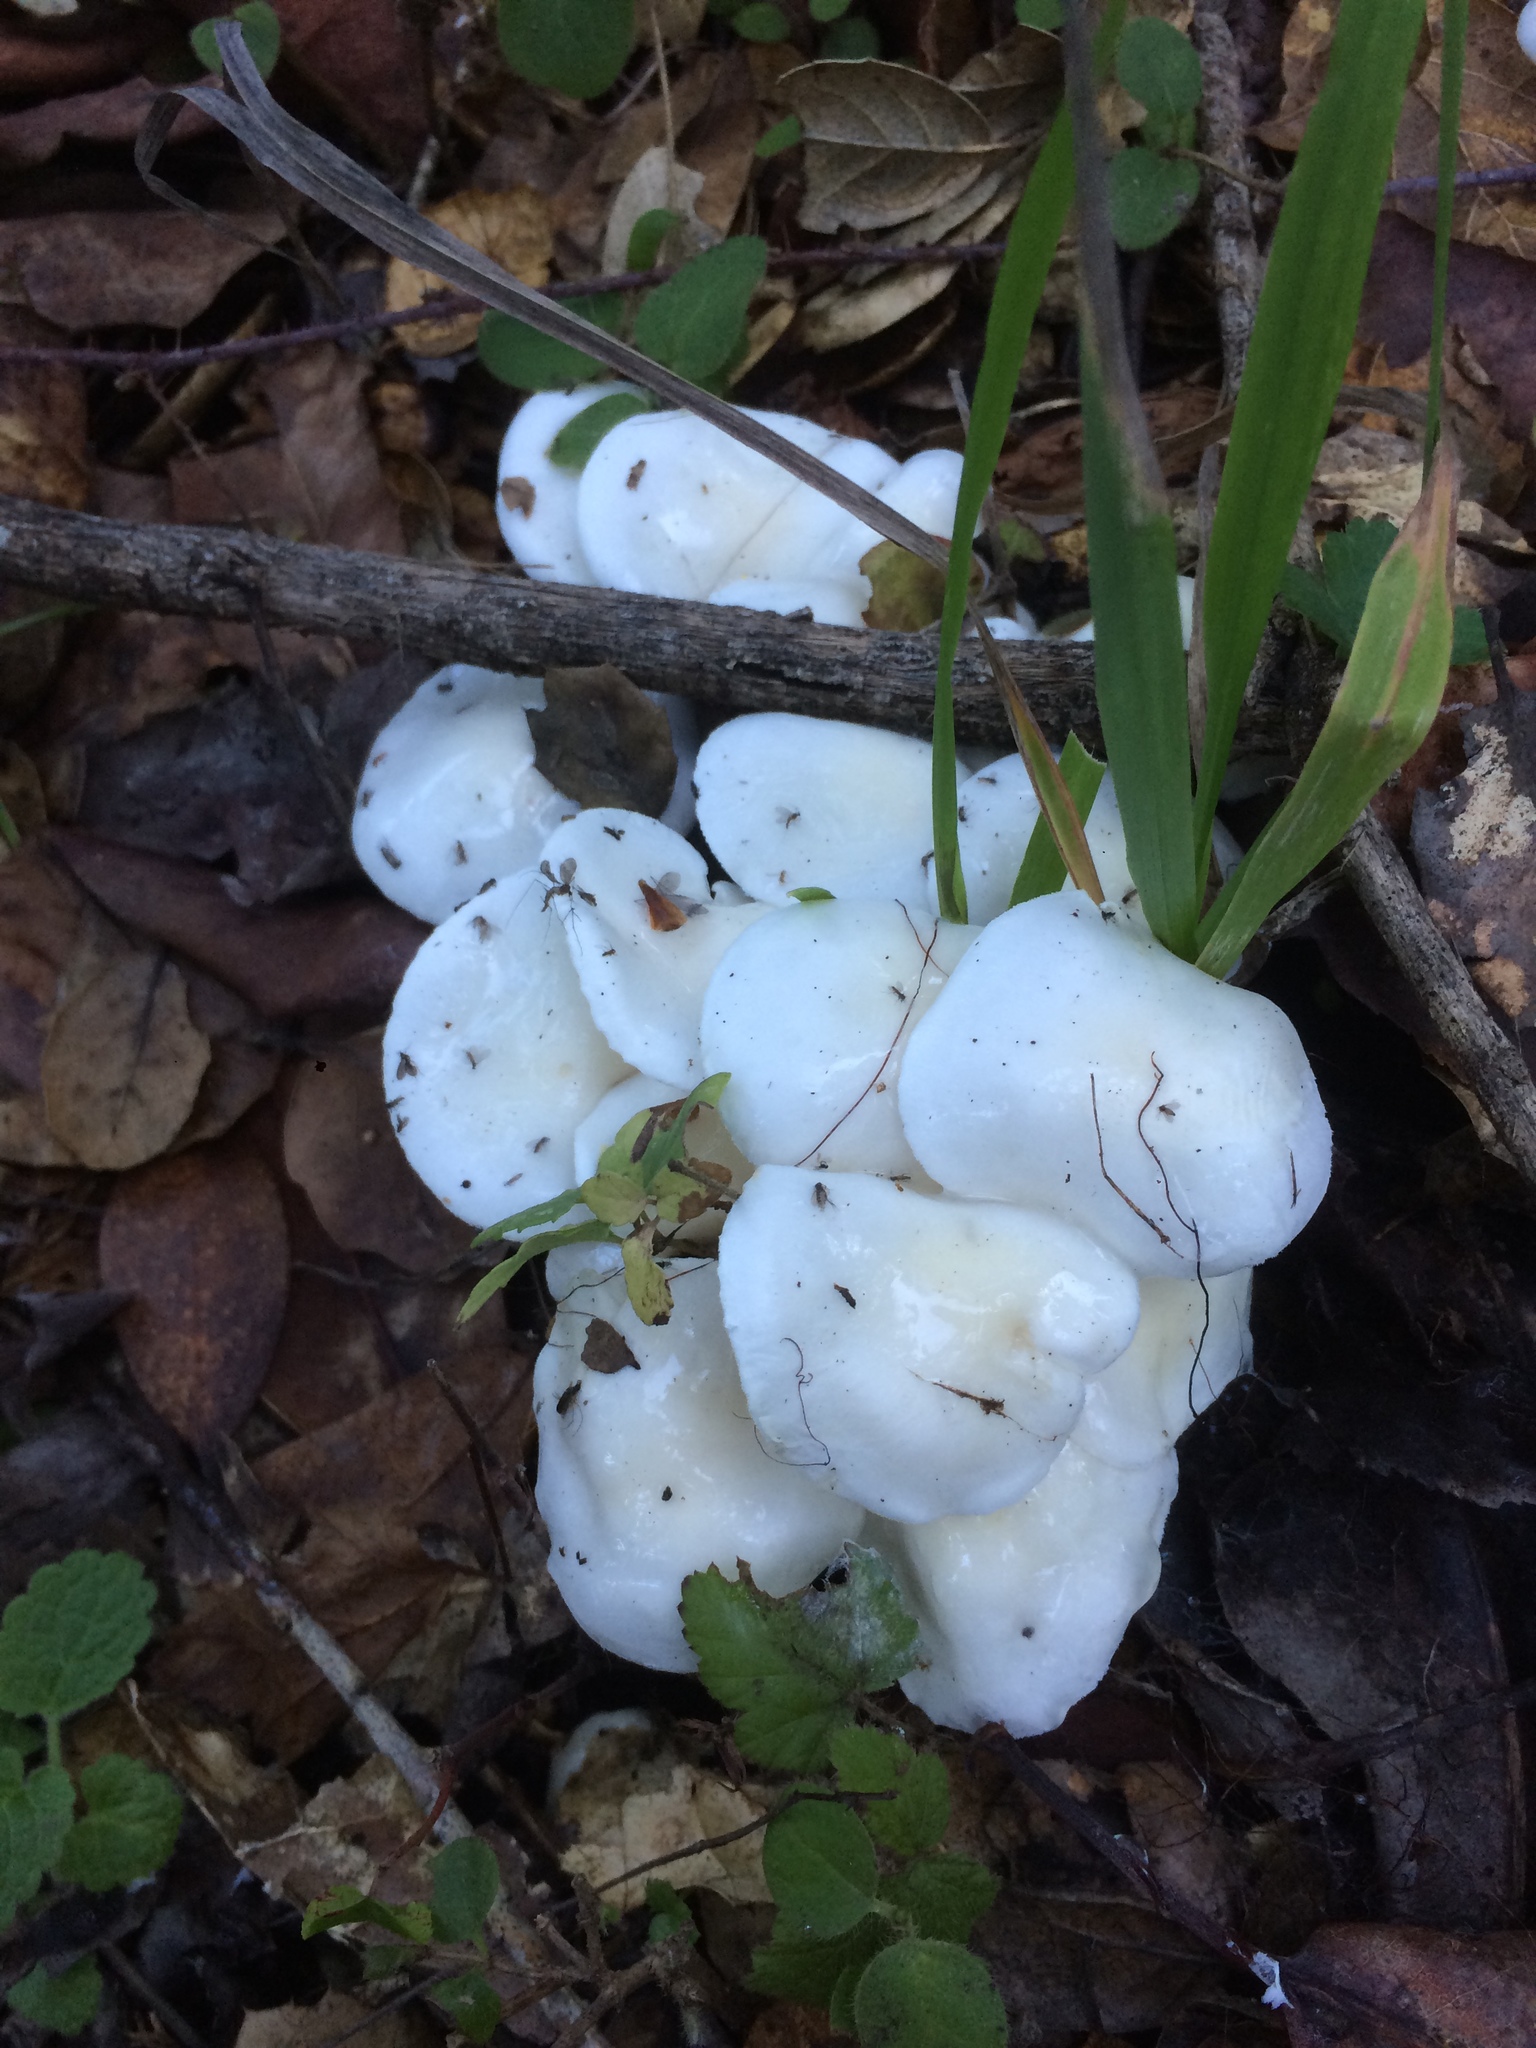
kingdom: Fungi
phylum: Basidiomycota
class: Agaricomycetes
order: Agaricales
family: Hygrophoraceae
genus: Hygrophorus
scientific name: Hygrophorus eburneus
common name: Ivory wax-cap
